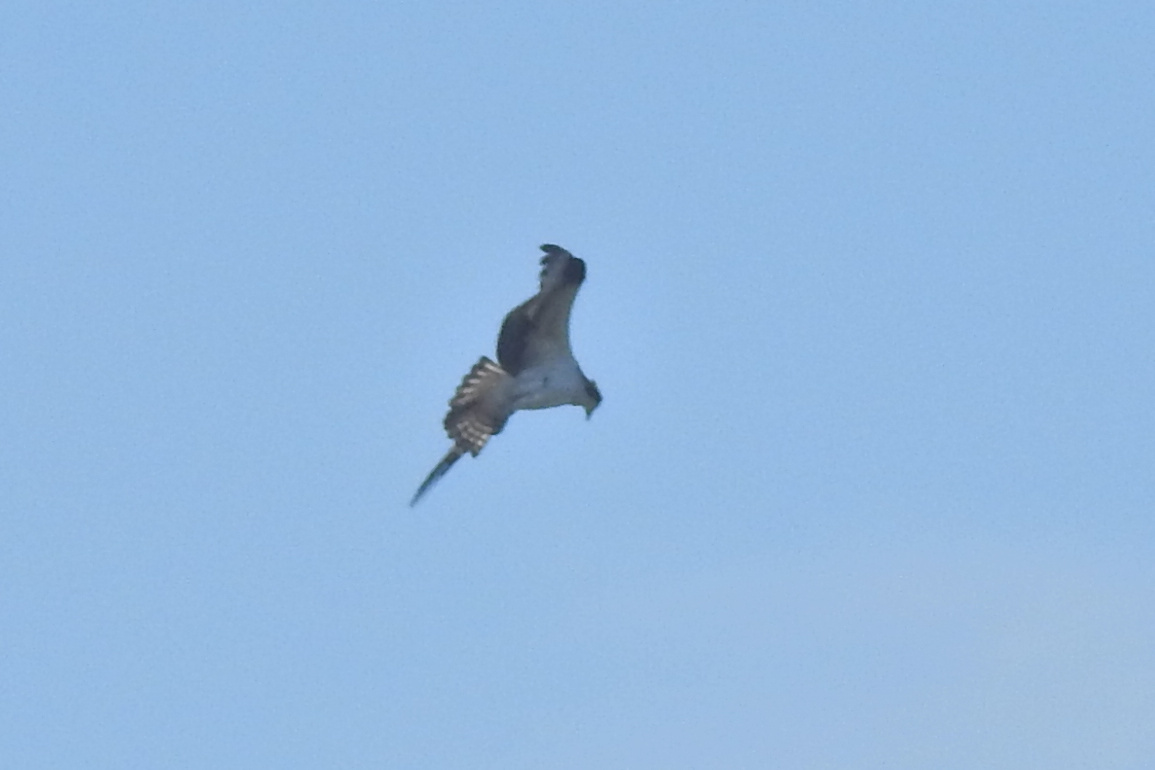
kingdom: Animalia
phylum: Chordata
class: Aves
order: Accipitriformes
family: Pandionidae
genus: Pandion
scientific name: Pandion haliaetus
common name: Osprey
